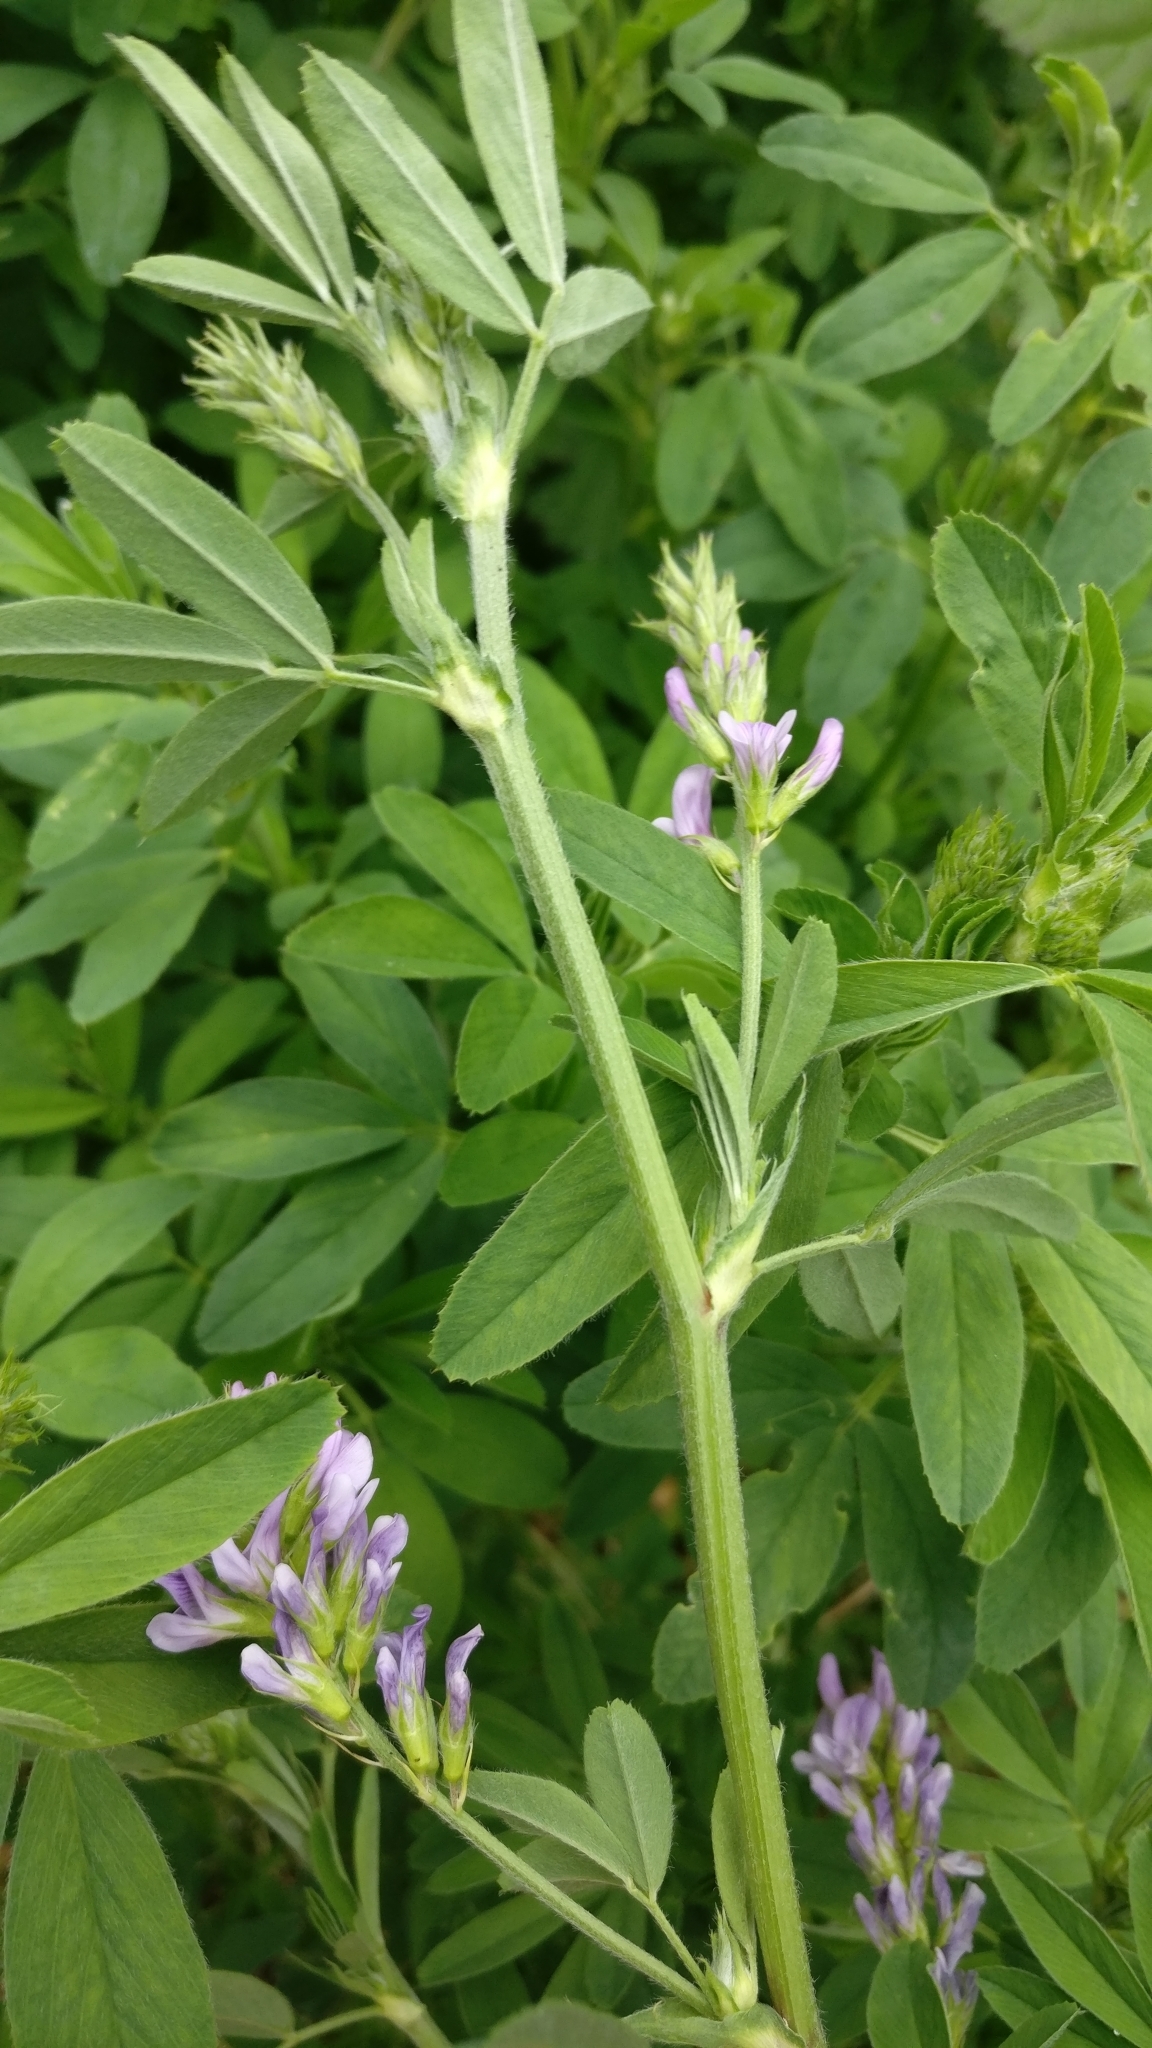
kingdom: Plantae
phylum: Tracheophyta
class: Magnoliopsida
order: Fabales
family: Fabaceae
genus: Medicago
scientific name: Medicago sativa
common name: Alfalfa
